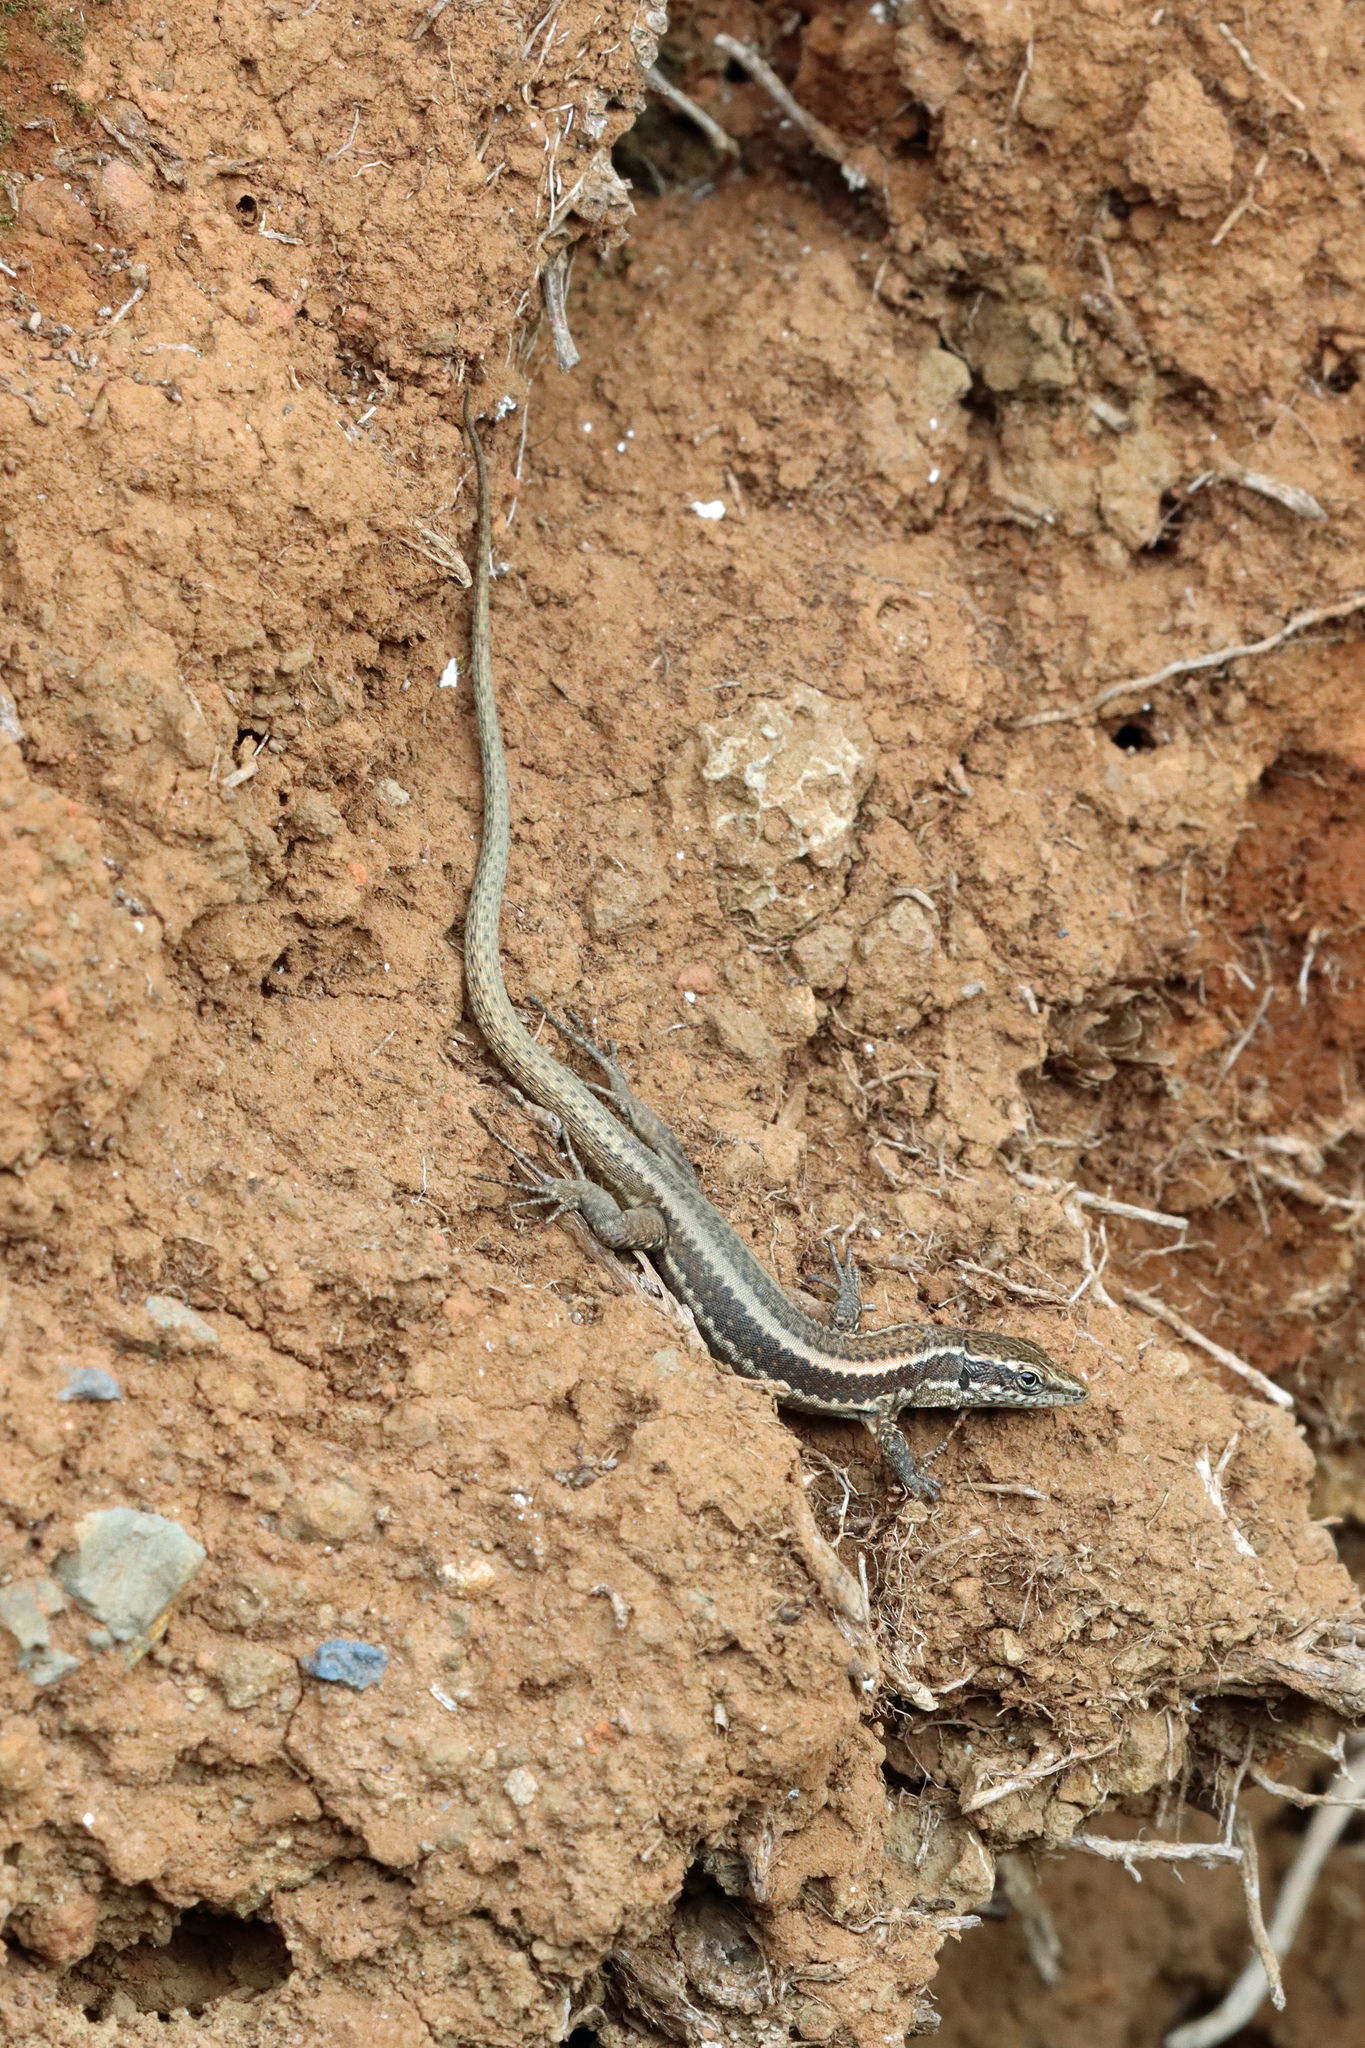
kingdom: Animalia
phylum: Chordata
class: Squamata
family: Lacertidae
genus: Teira
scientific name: Teira dugesii
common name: Madeira lizard
